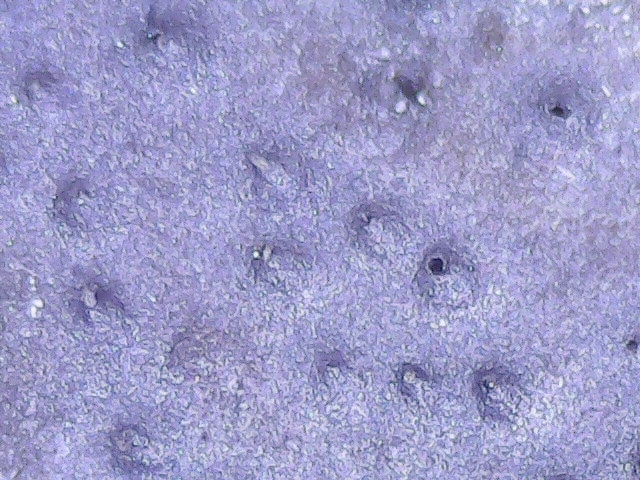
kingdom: Fungi
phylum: Ascomycota
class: Sordariomycetes
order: Xylariales
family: Graphostromataceae
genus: Camillea
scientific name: Camillea punctulata
